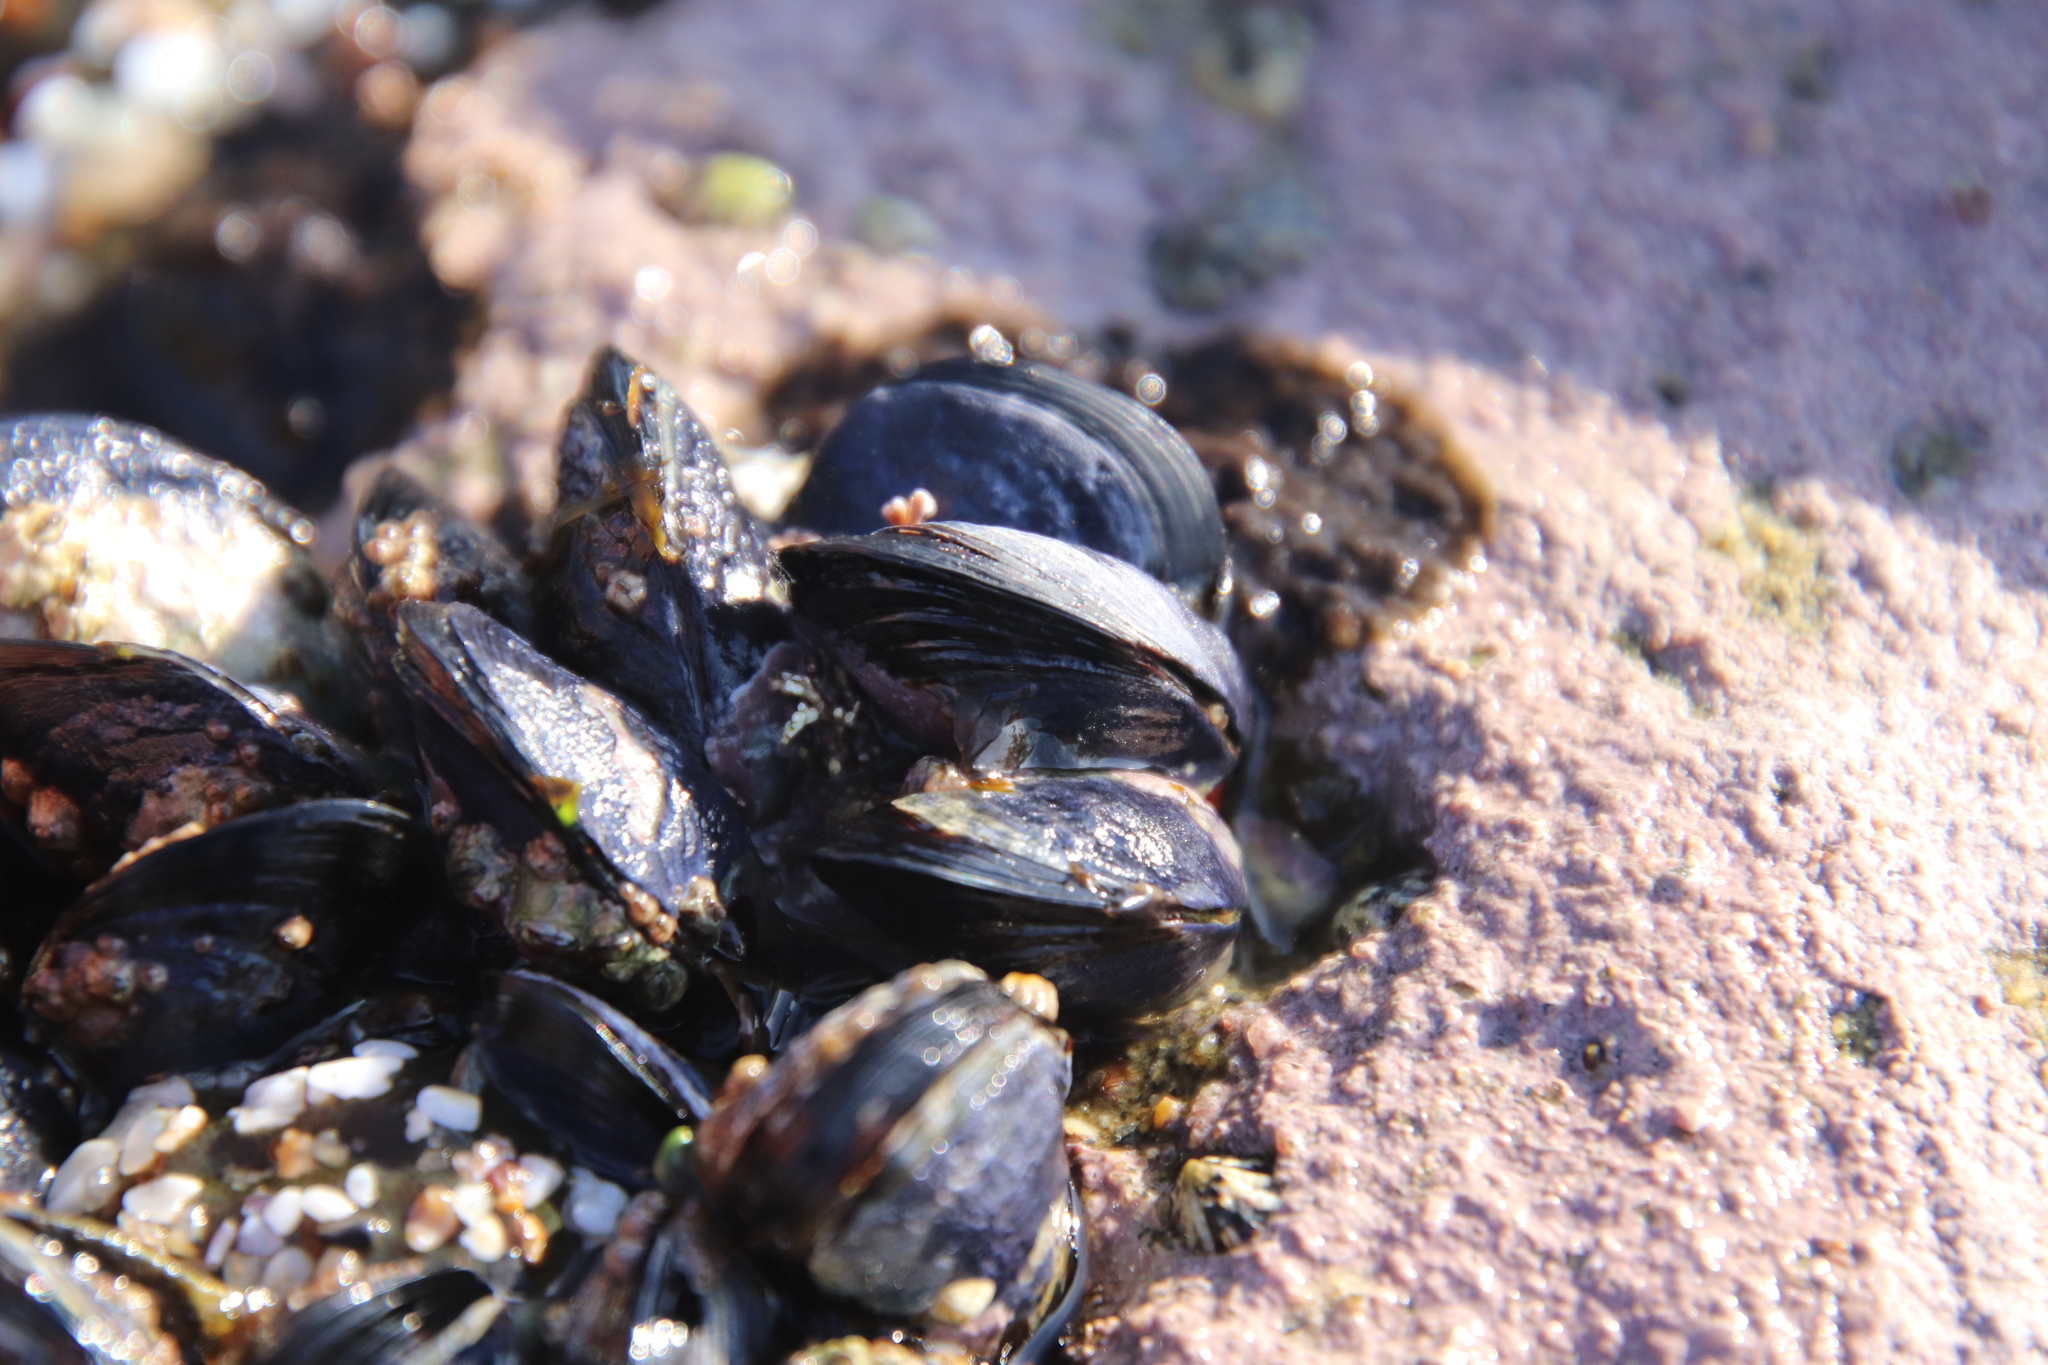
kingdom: Animalia
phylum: Mollusca
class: Bivalvia
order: Mytilida
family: Mytilidae
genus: Mytilus
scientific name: Mytilus californianus
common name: California mussel
